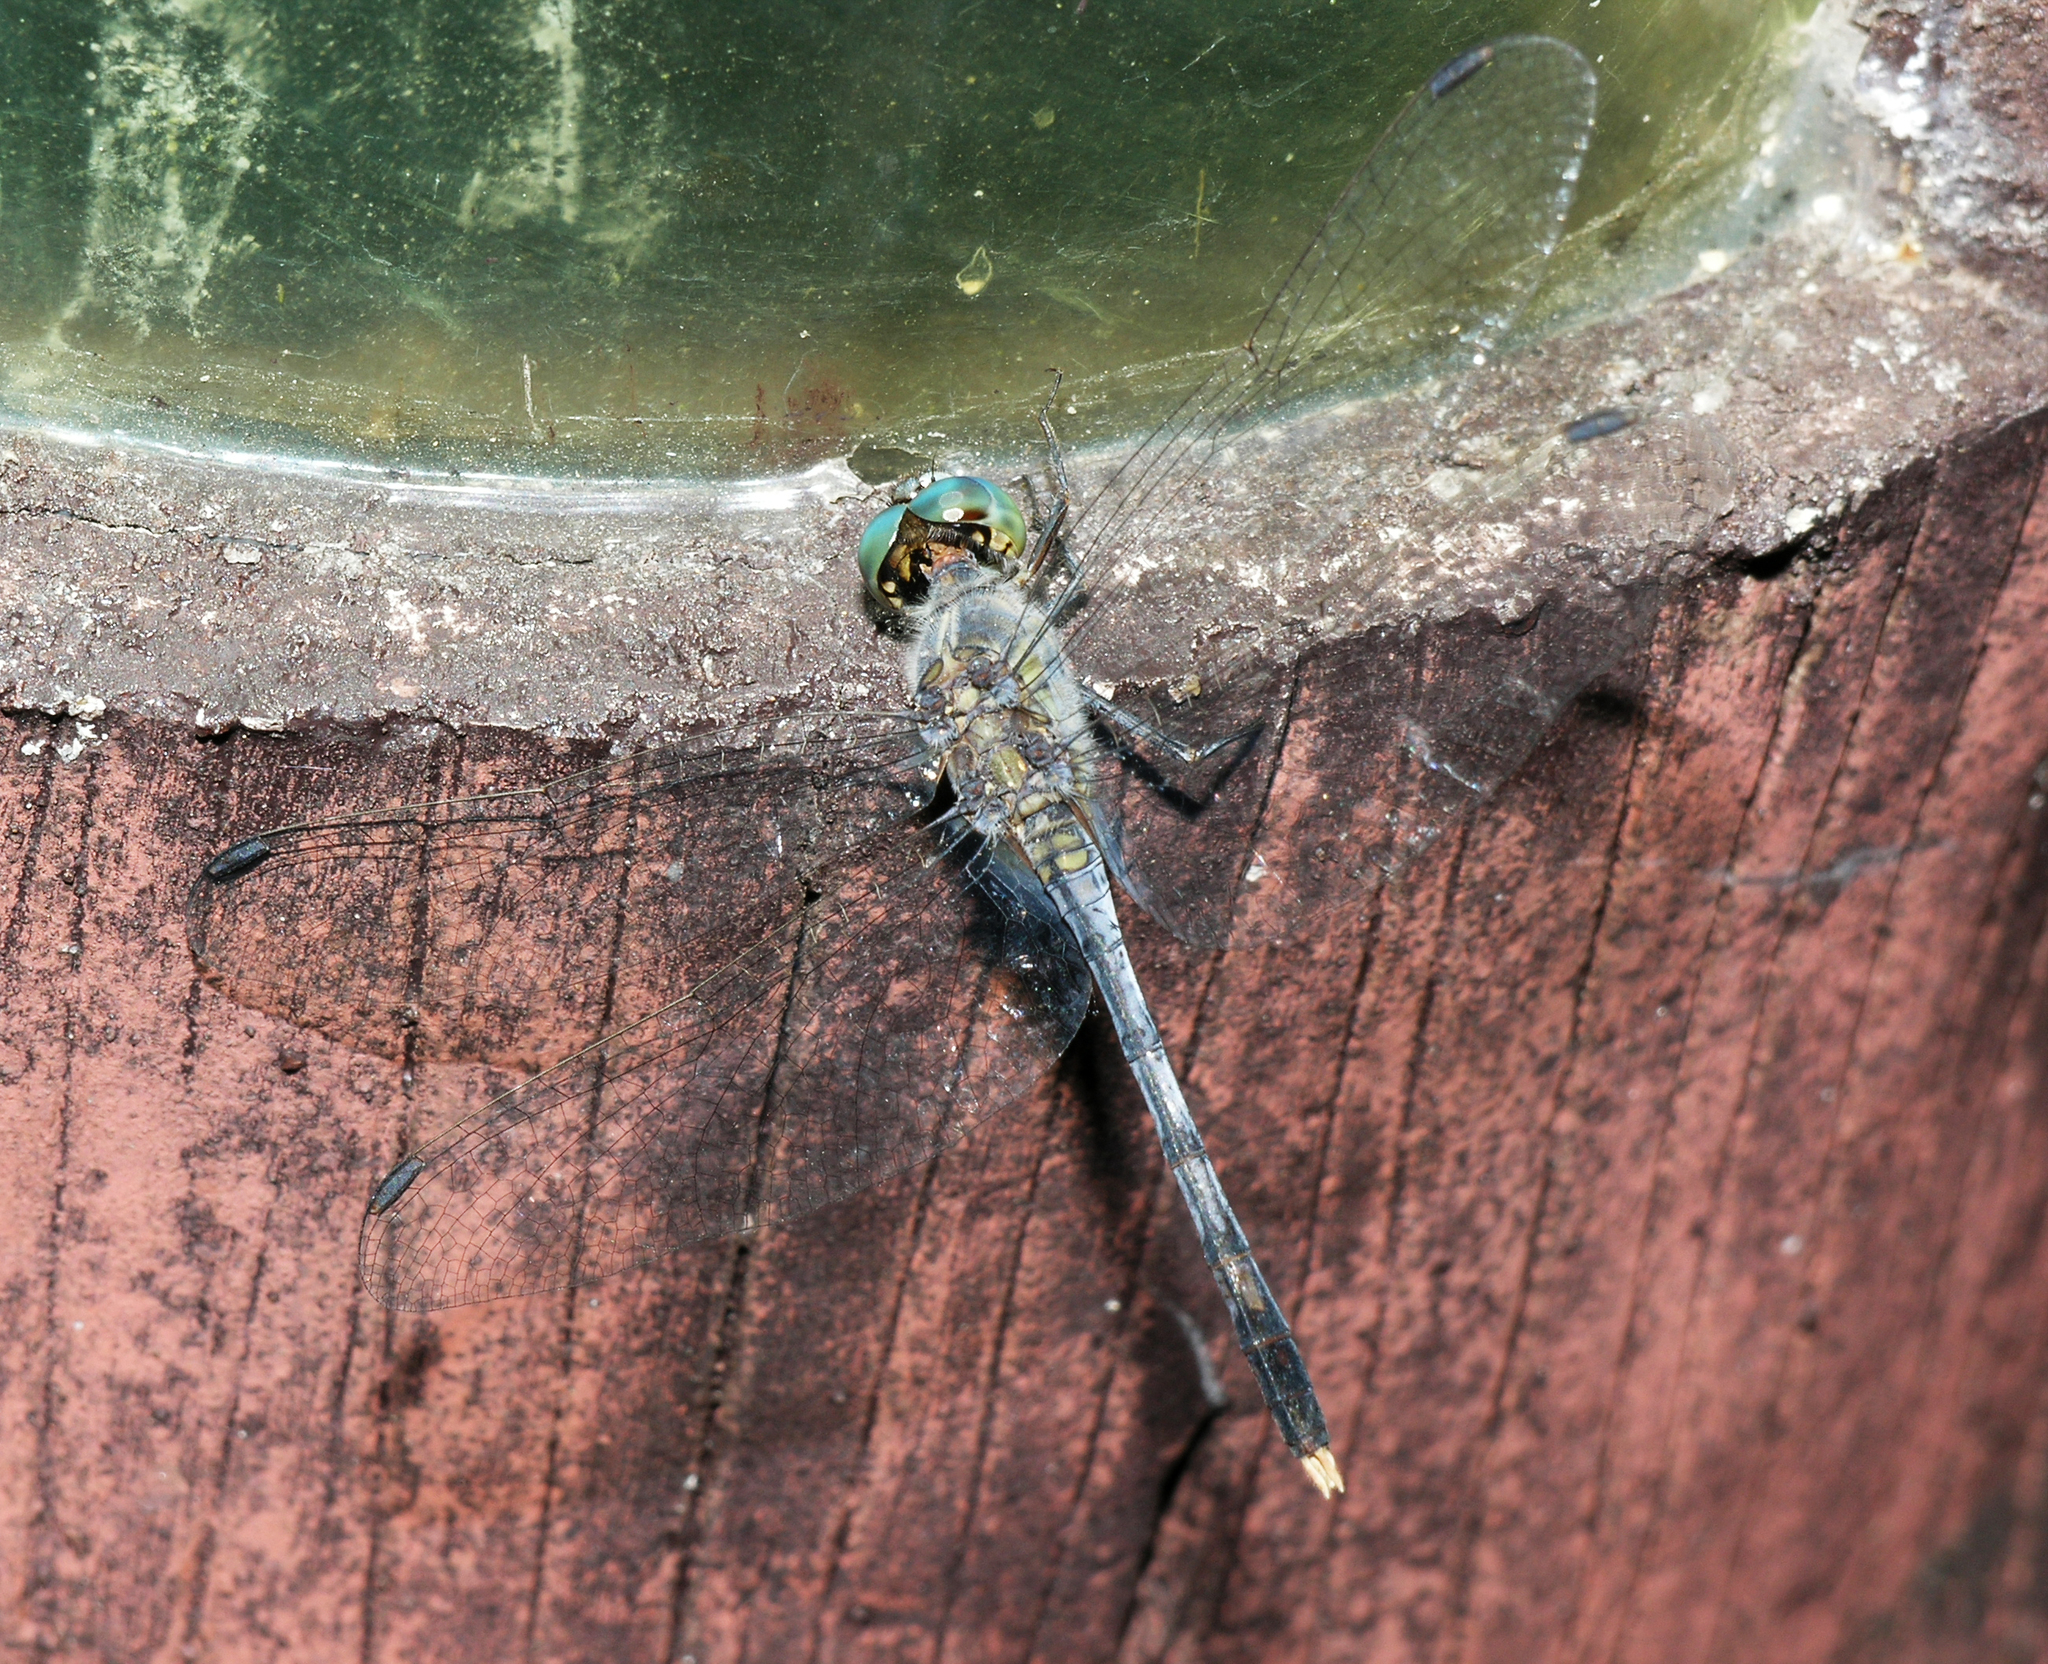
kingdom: Animalia
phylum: Arthropoda
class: Insecta
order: Odonata
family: Libellulidae
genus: Diplacodes
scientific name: Diplacodes trivialis
